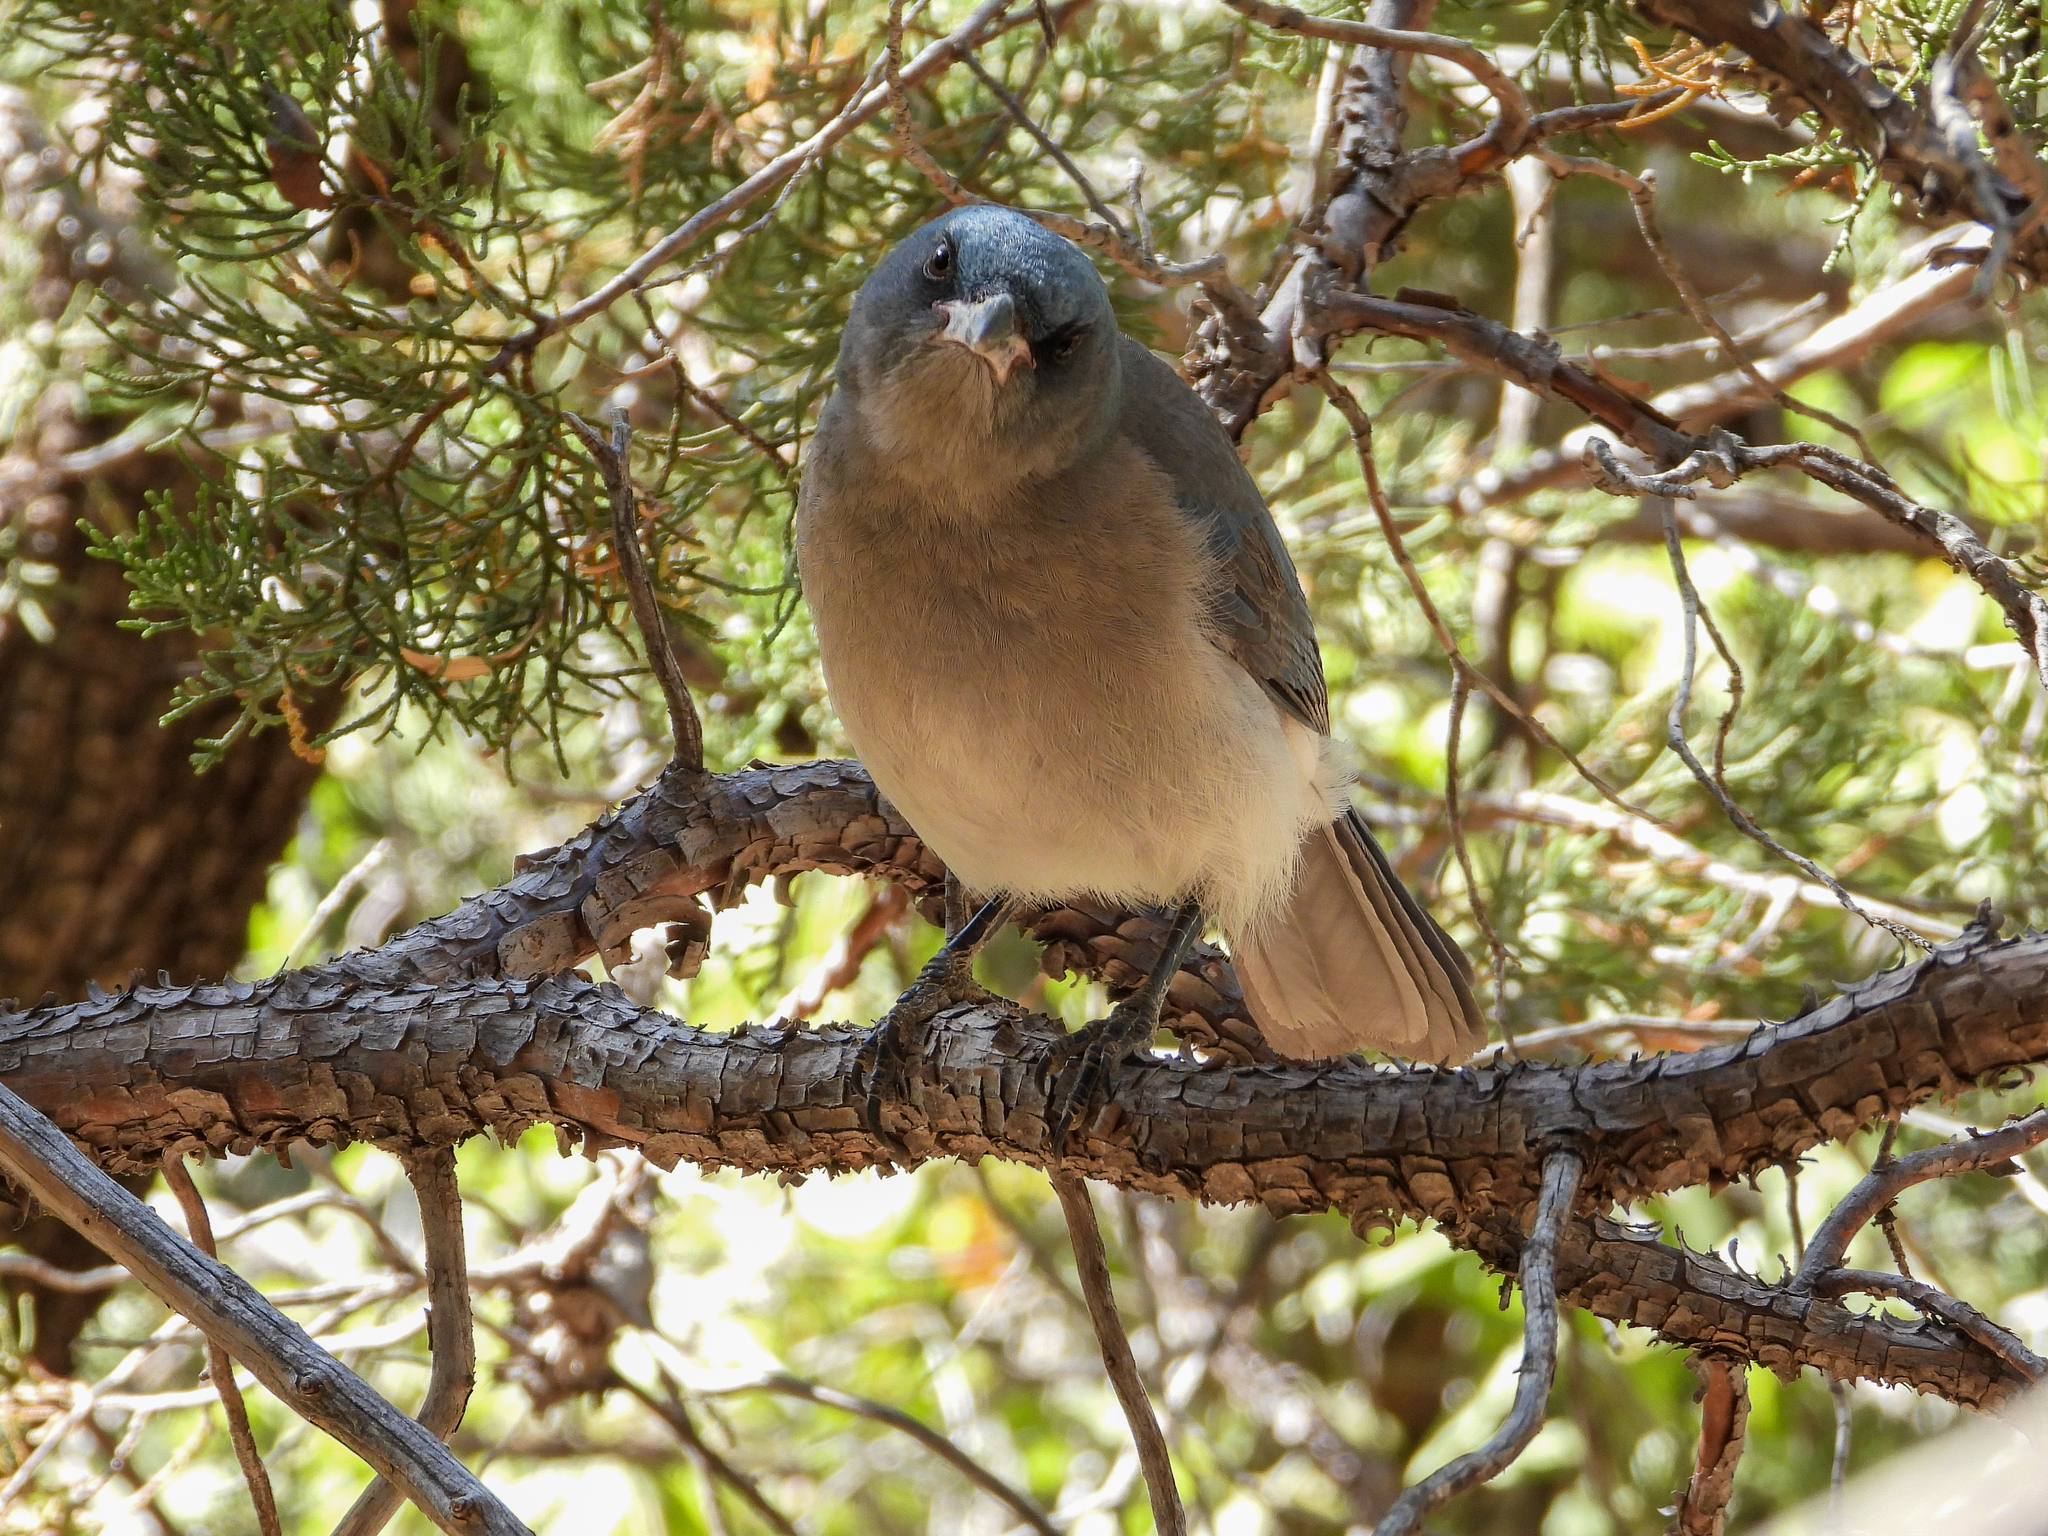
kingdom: Animalia
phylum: Chordata
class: Aves
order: Passeriformes
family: Corvidae
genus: Aphelocoma
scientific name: Aphelocoma wollweberi
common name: Mexican jay
